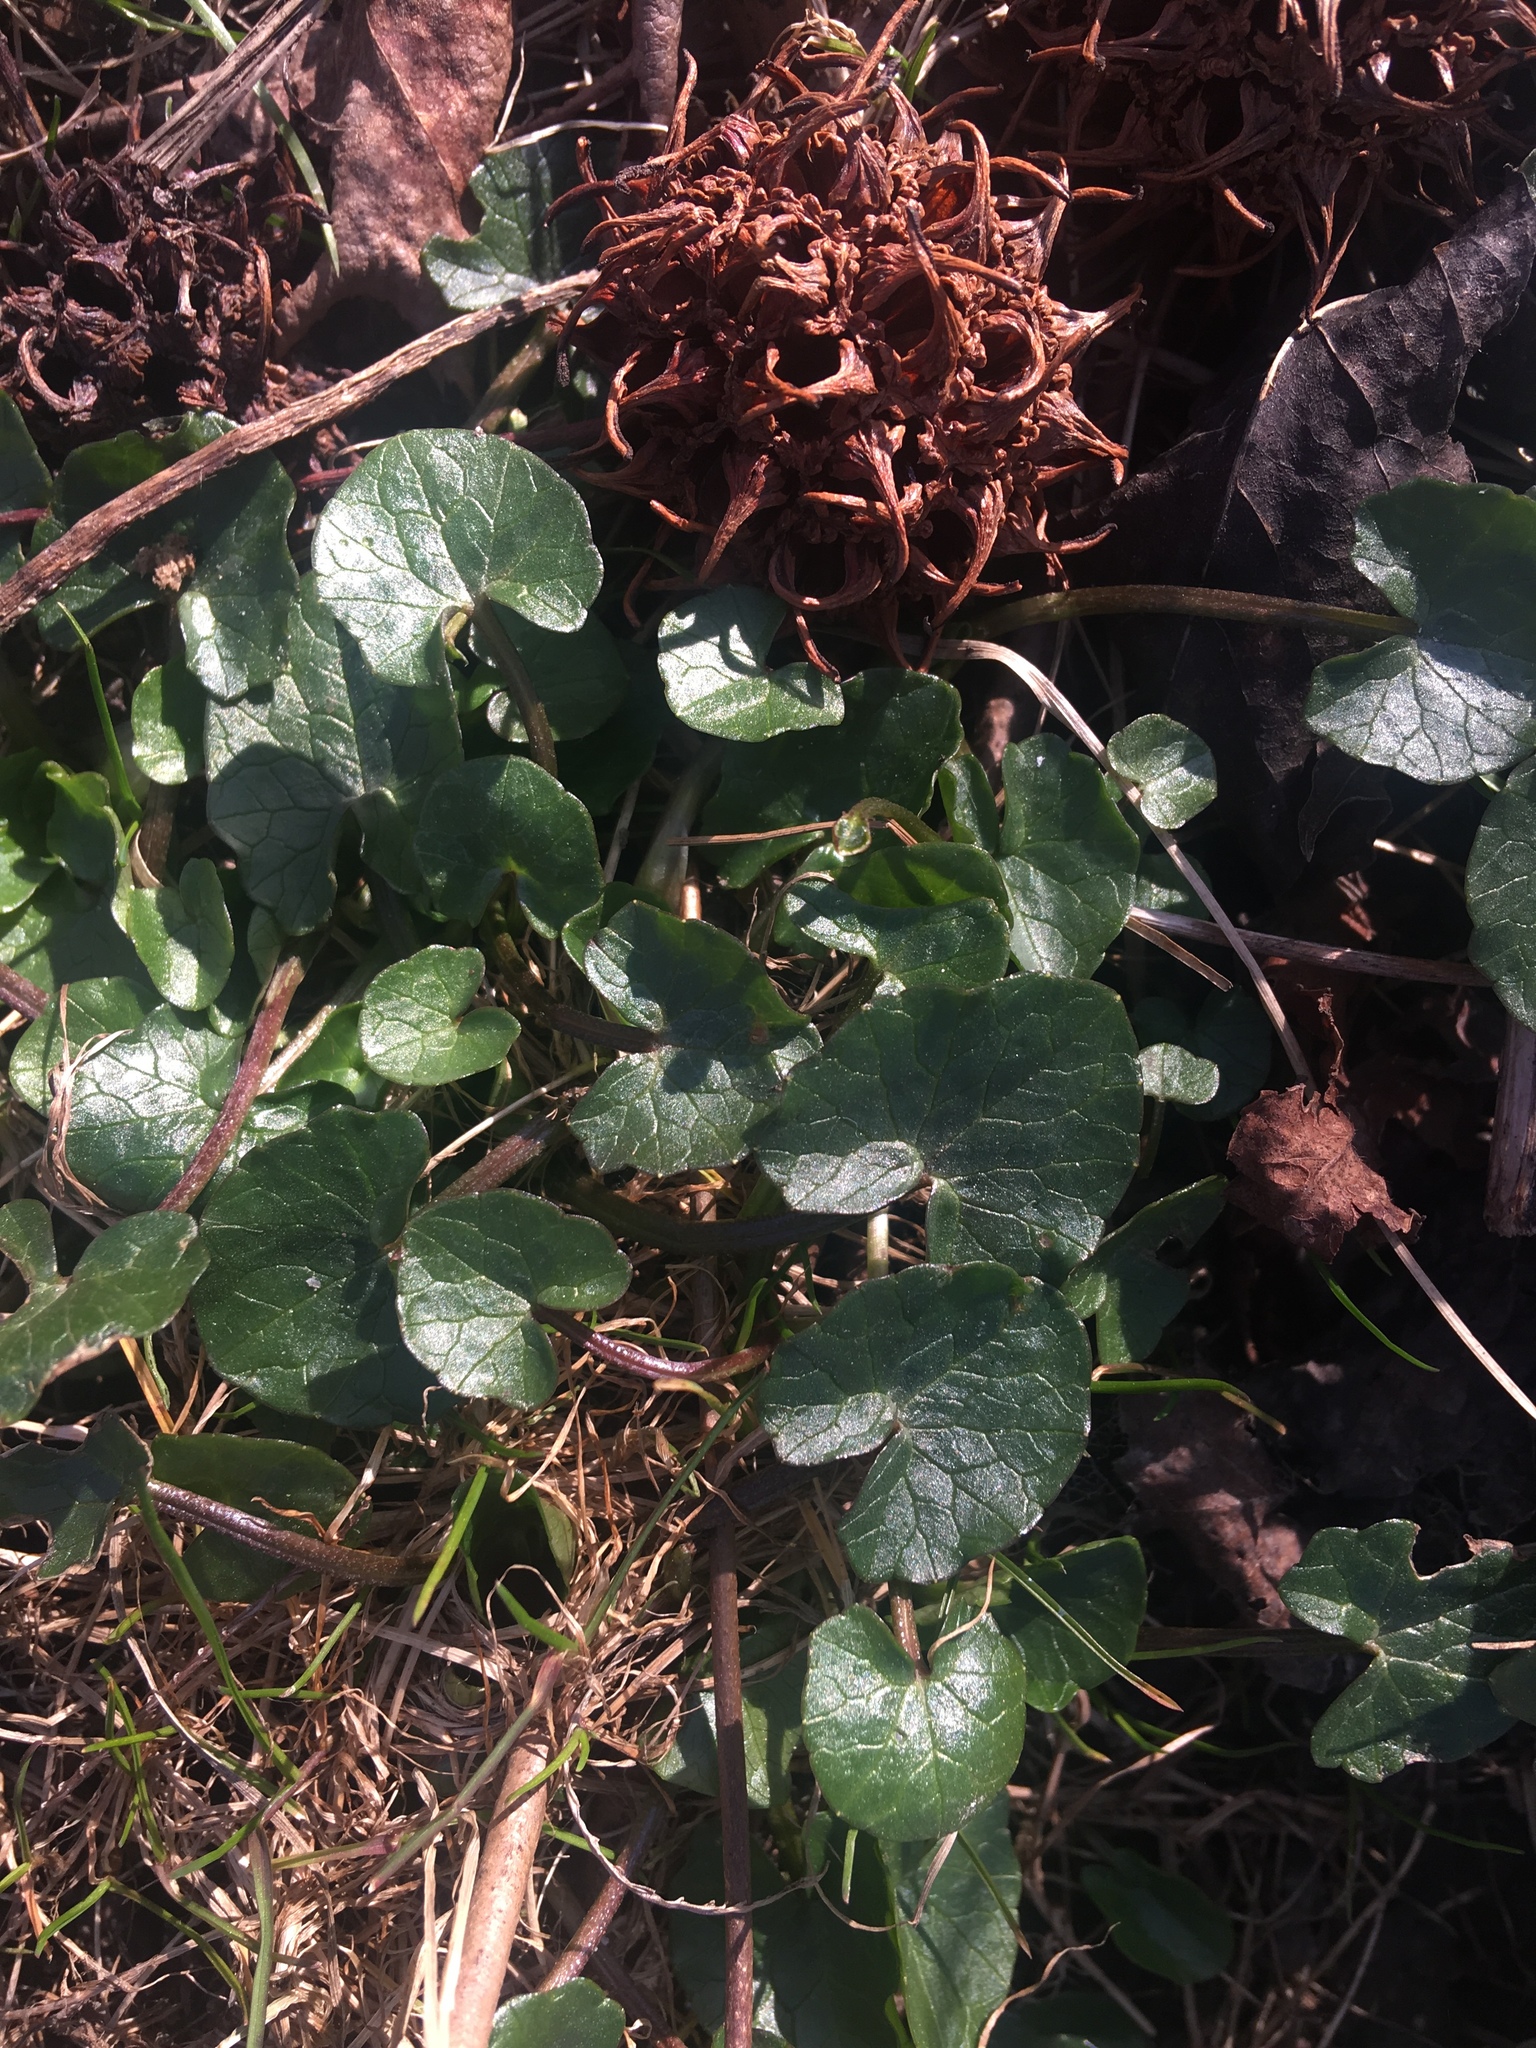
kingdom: Plantae
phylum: Tracheophyta
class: Magnoliopsida
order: Ranunculales
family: Ranunculaceae
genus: Ficaria
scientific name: Ficaria verna
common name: Lesser celandine
